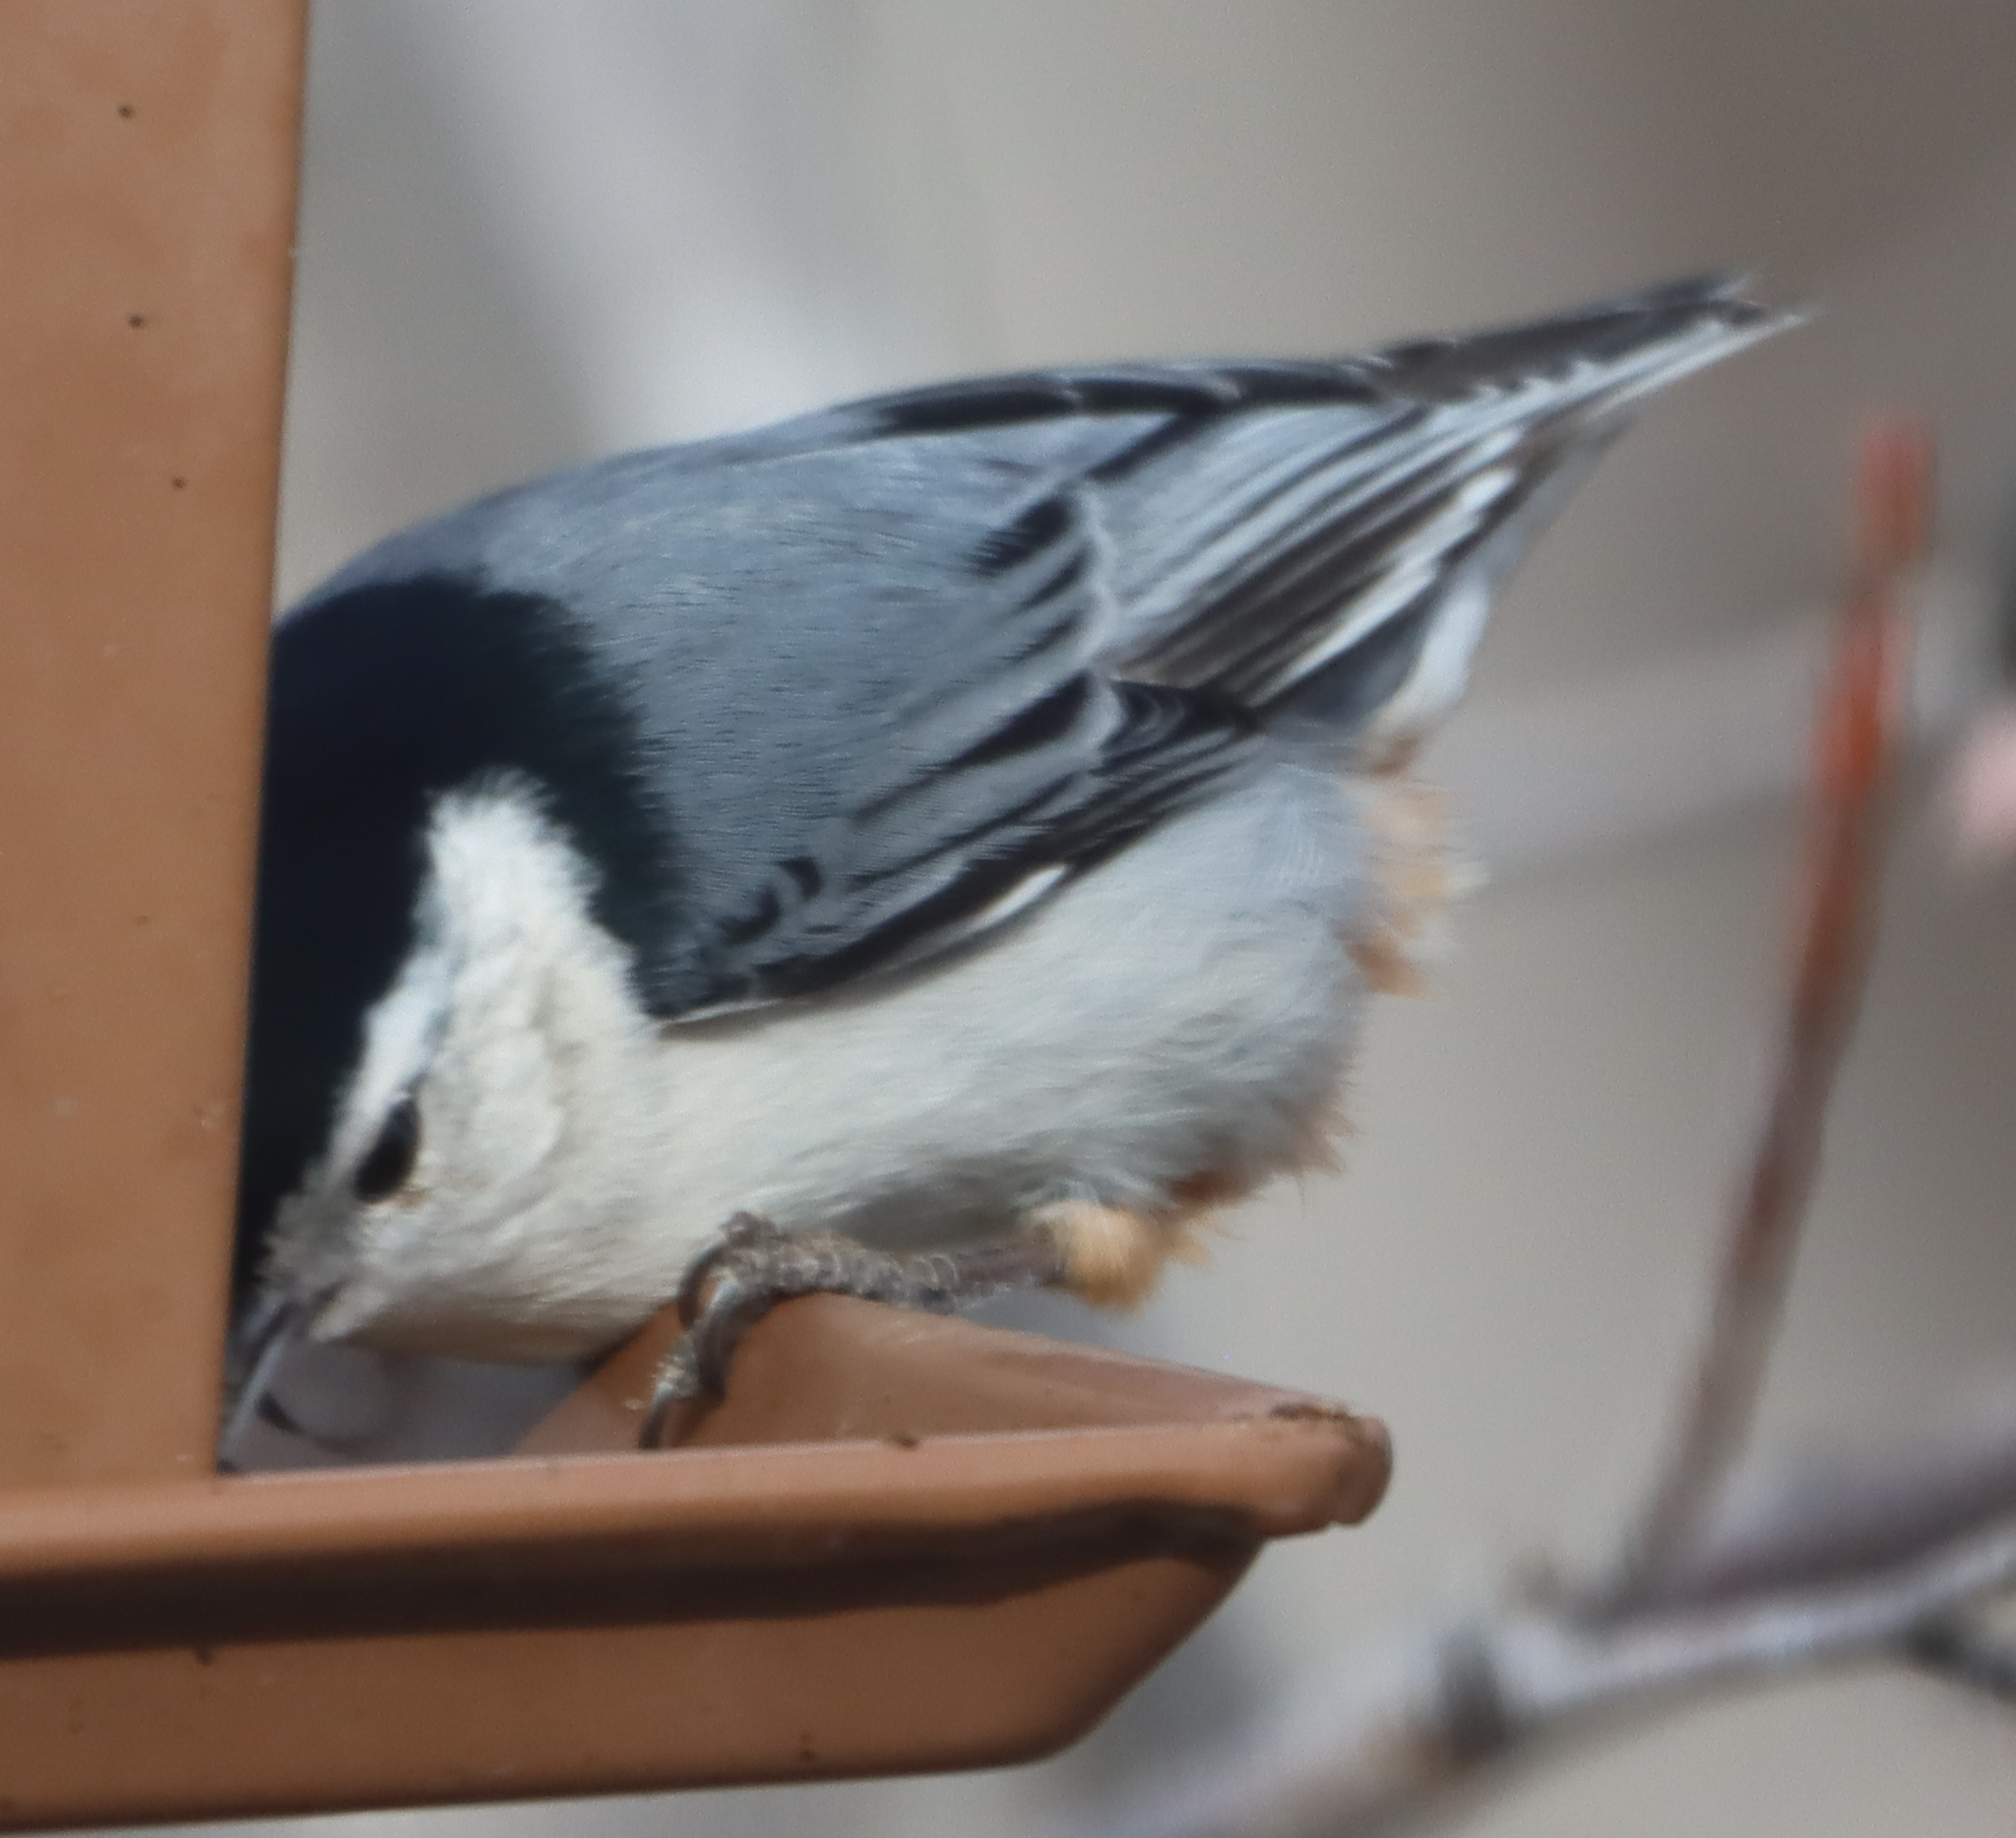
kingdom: Animalia
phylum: Chordata
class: Aves
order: Passeriformes
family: Sittidae
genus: Sitta
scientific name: Sitta carolinensis
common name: White-breasted nuthatch
